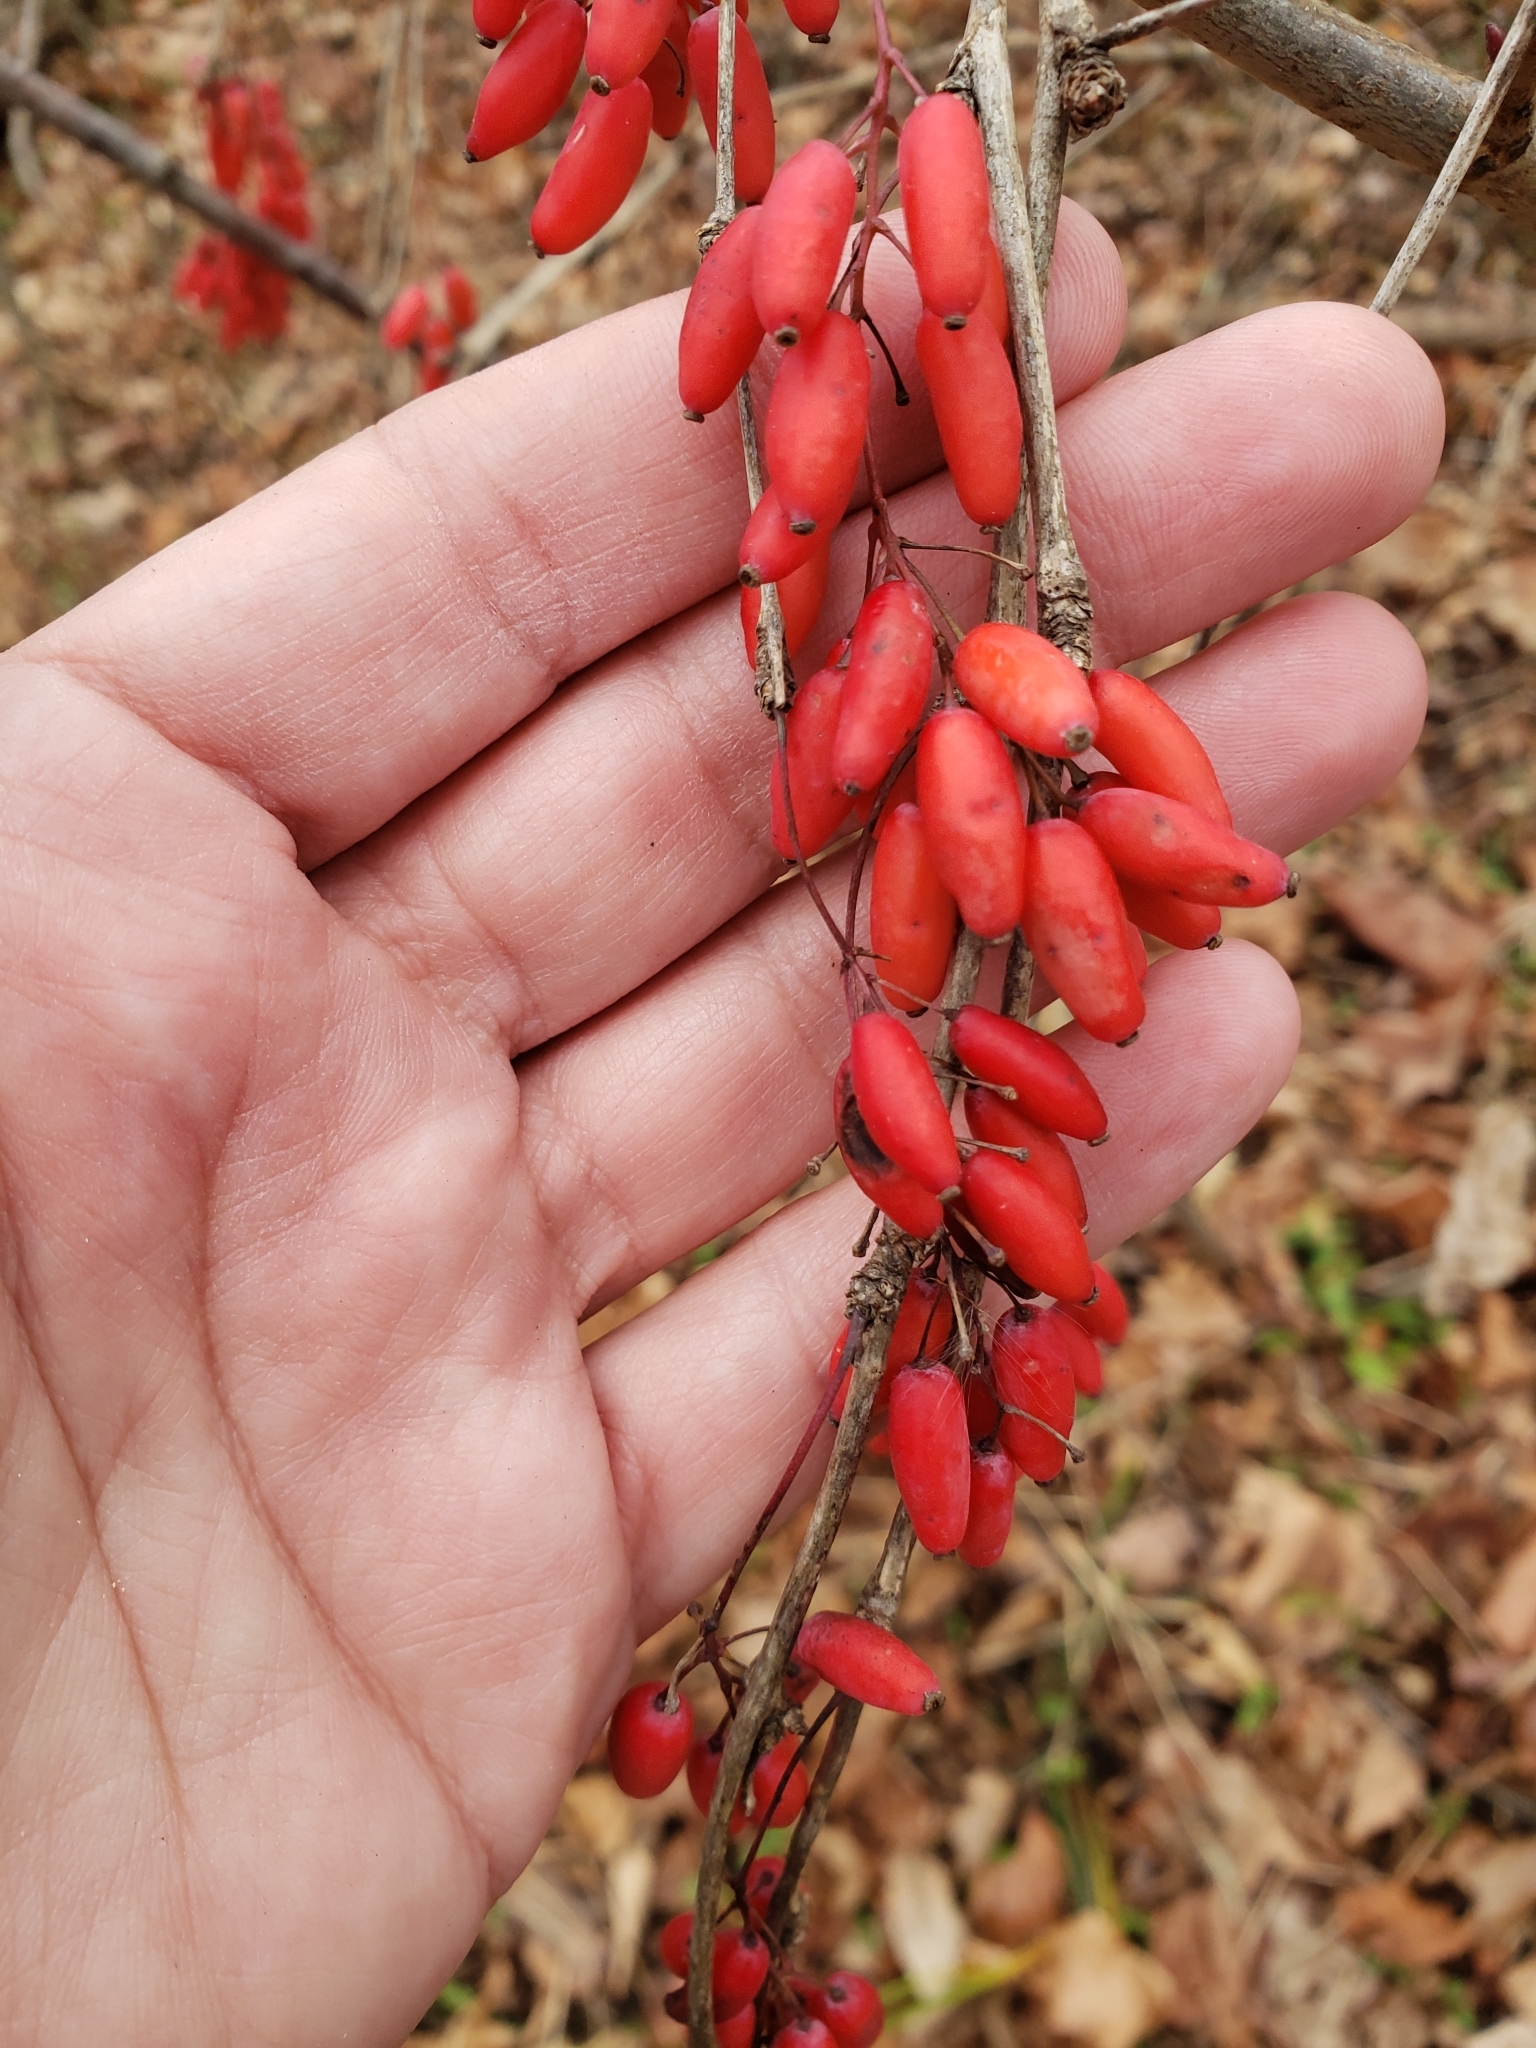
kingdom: Plantae
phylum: Tracheophyta
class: Magnoliopsida
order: Ranunculales
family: Berberidaceae
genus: Berberis
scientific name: Berberis vulgaris
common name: Barberry
